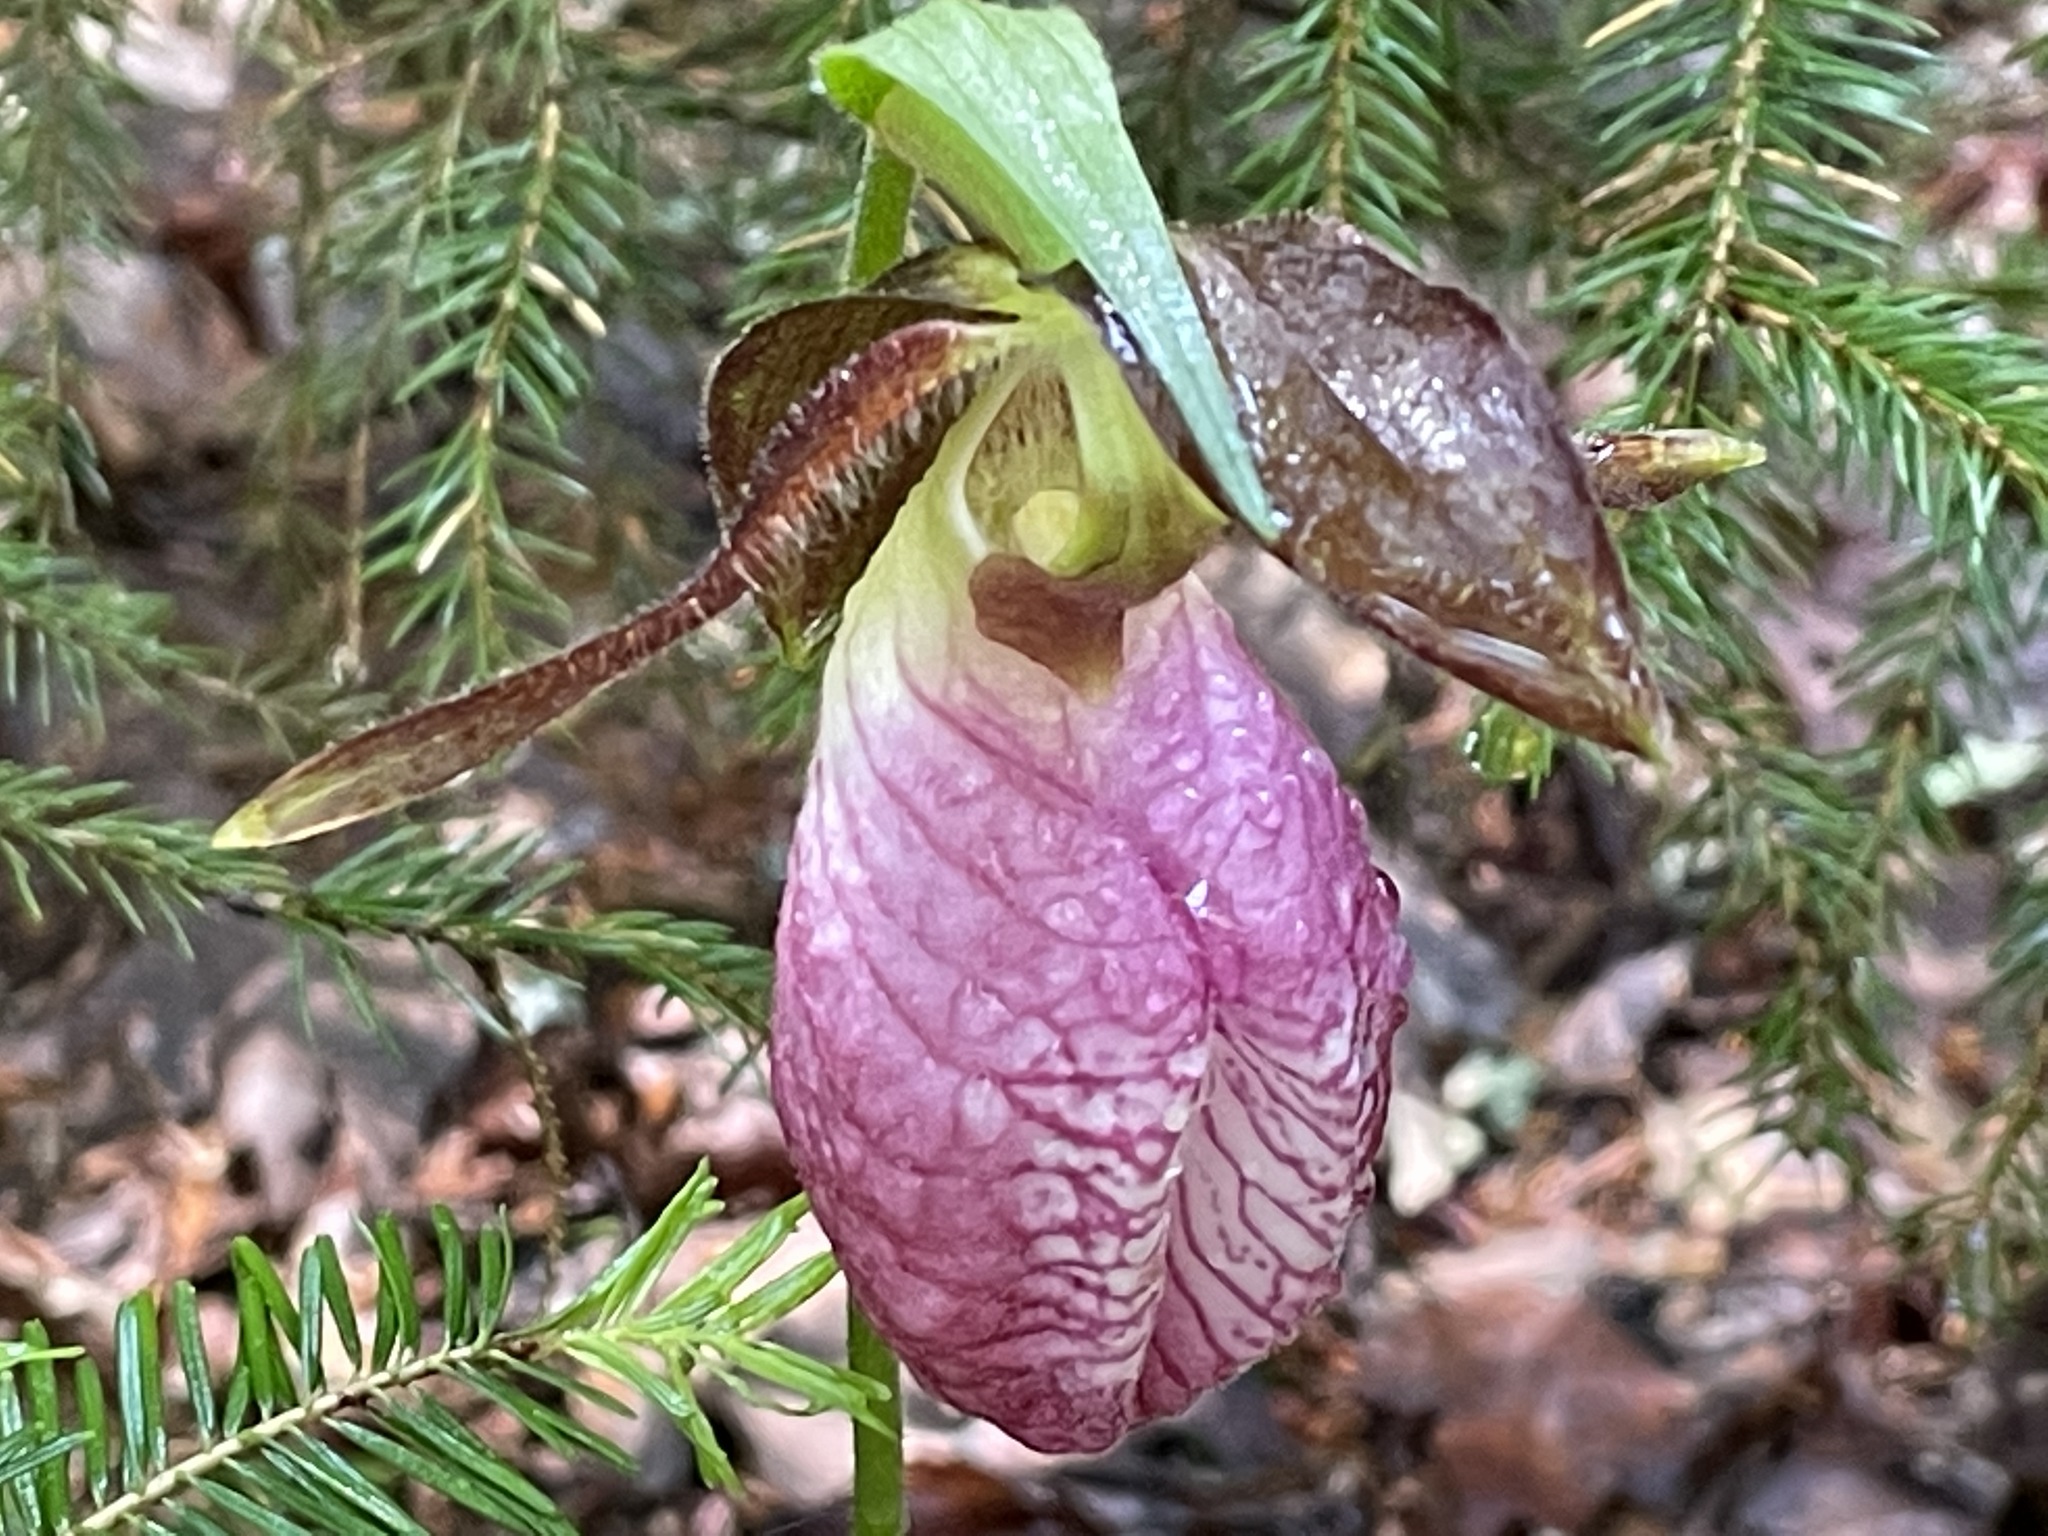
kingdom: Plantae
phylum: Tracheophyta
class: Liliopsida
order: Asparagales
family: Orchidaceae
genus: Cypripedium
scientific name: Cypripedium acaule
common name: Pink lady's-slipper
